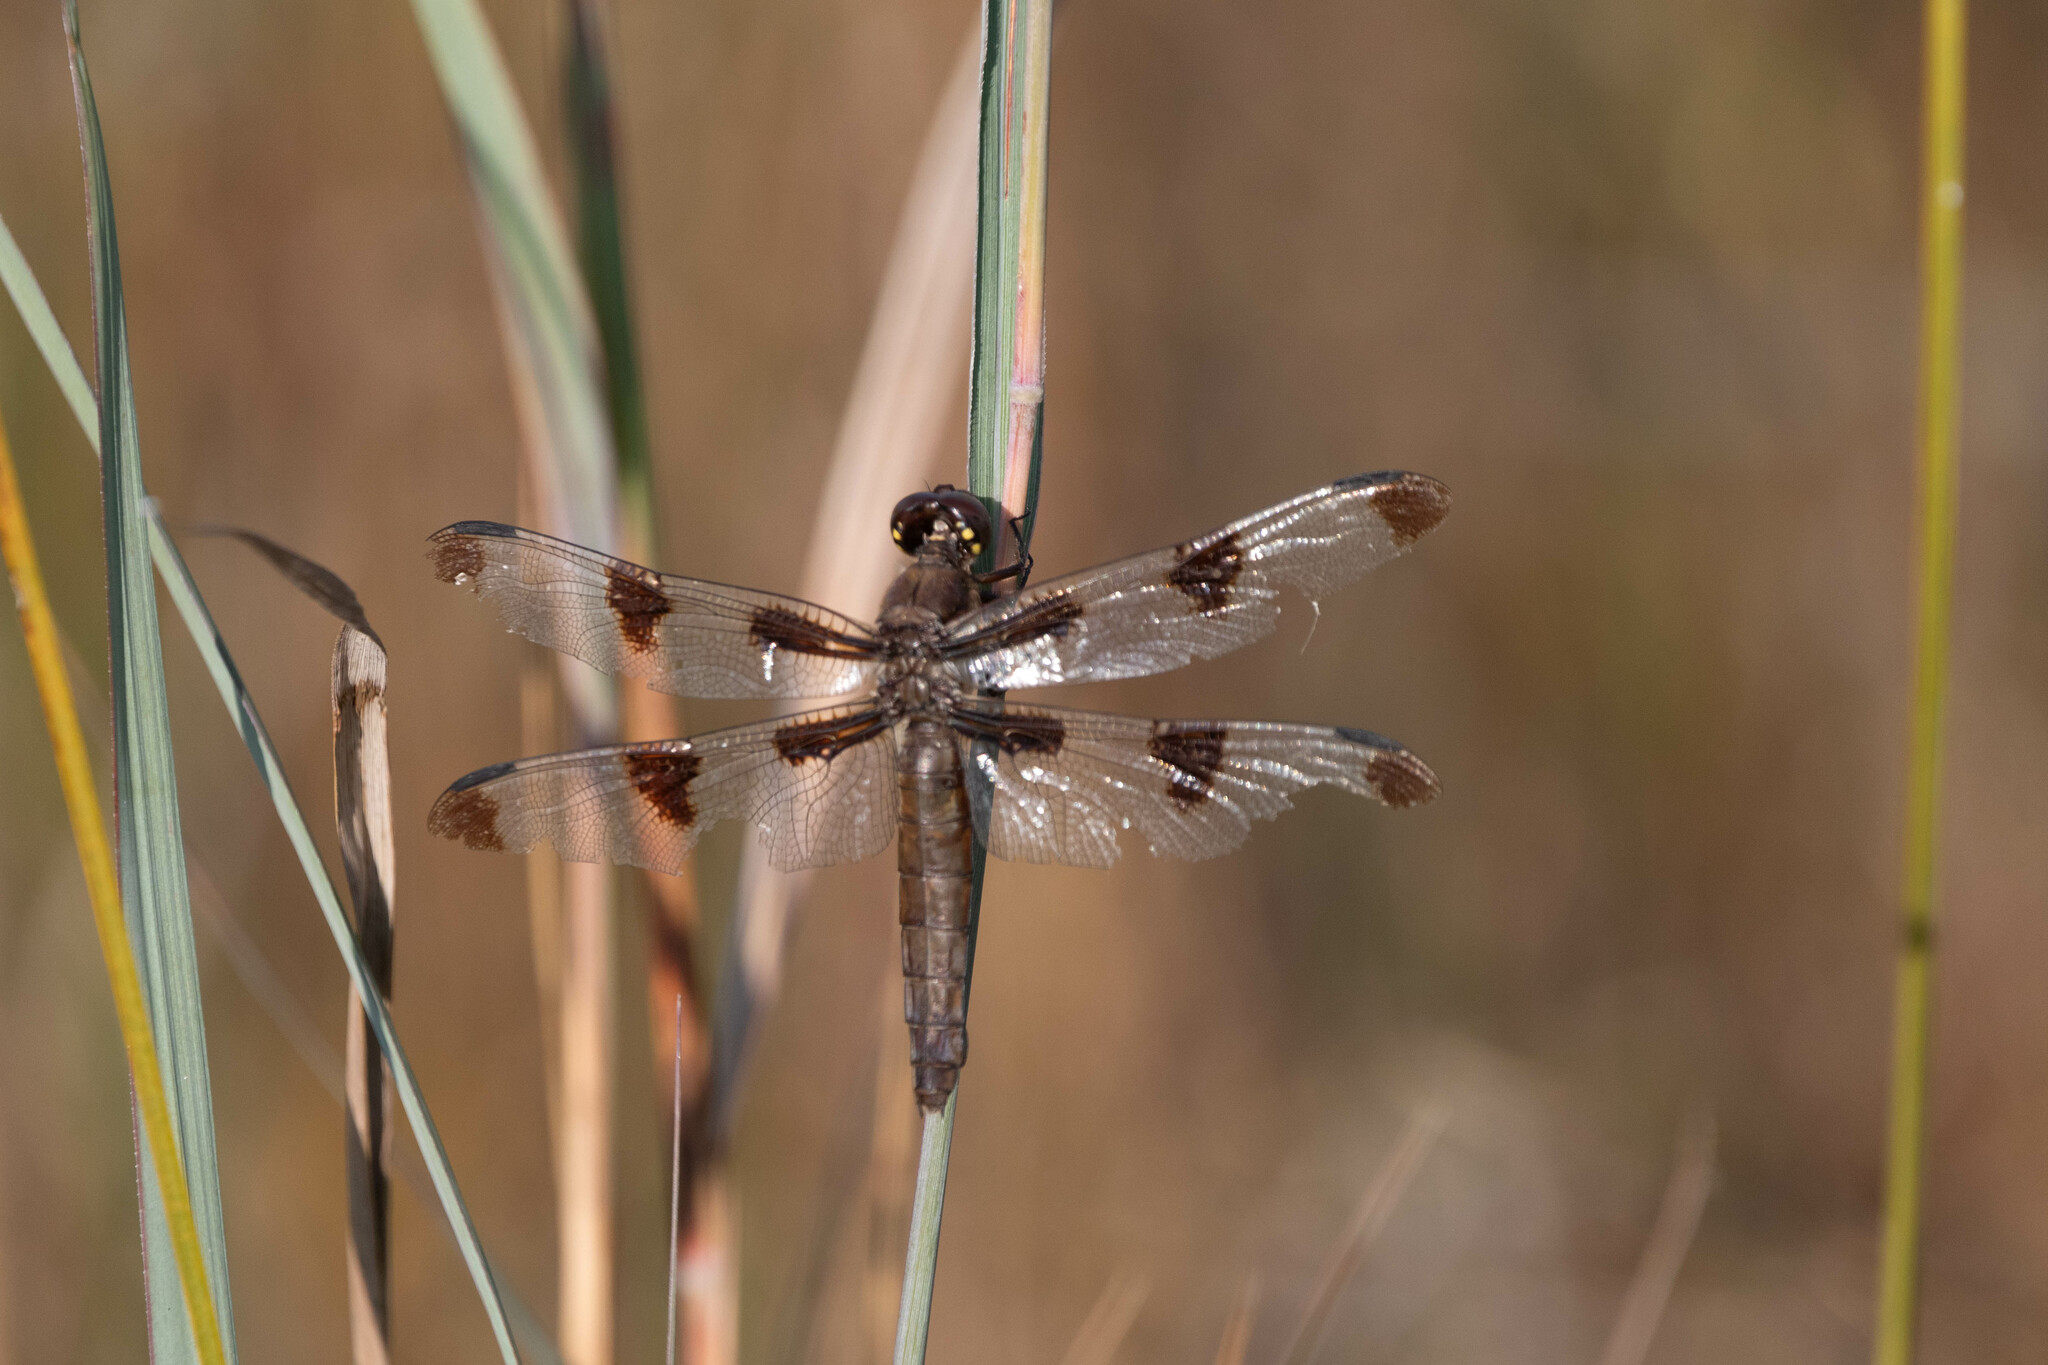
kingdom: Animalia
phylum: Arthropoda
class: Insecta
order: Odonata
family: Libellulidae
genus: Libellula
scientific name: Libellula pulchella
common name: Twelve-spotted skimmer
